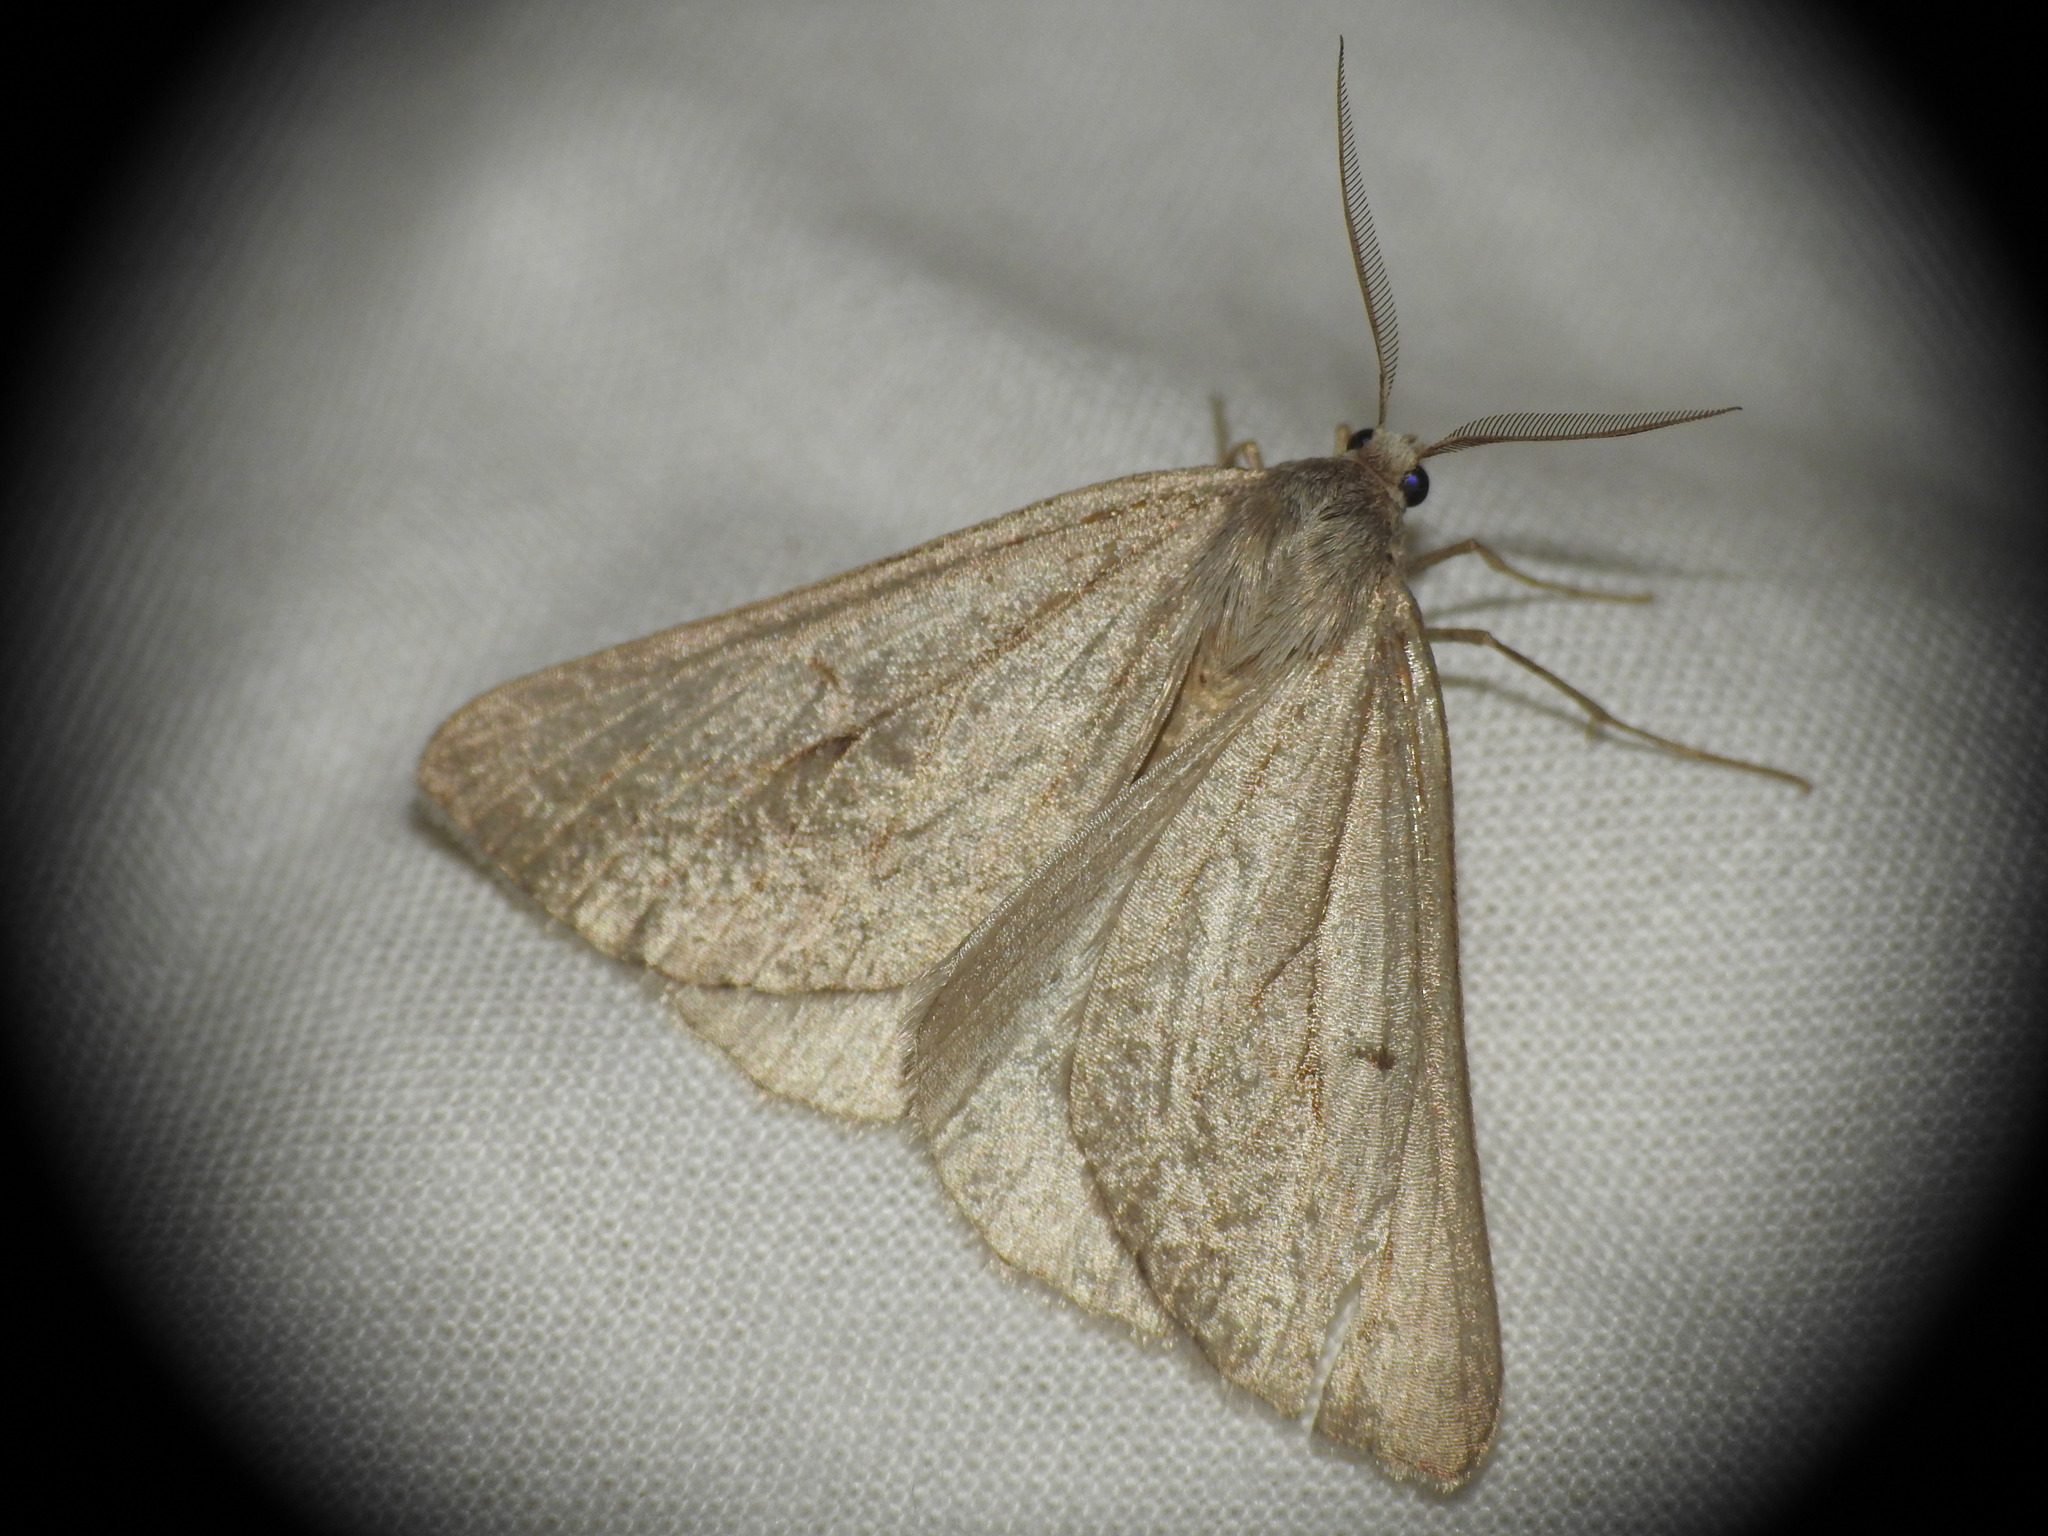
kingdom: Animalia
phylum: Arthropoda
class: Insecta
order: Lepidoptera
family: Geometridae
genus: Chemerina
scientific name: Chemerina caliginearia
